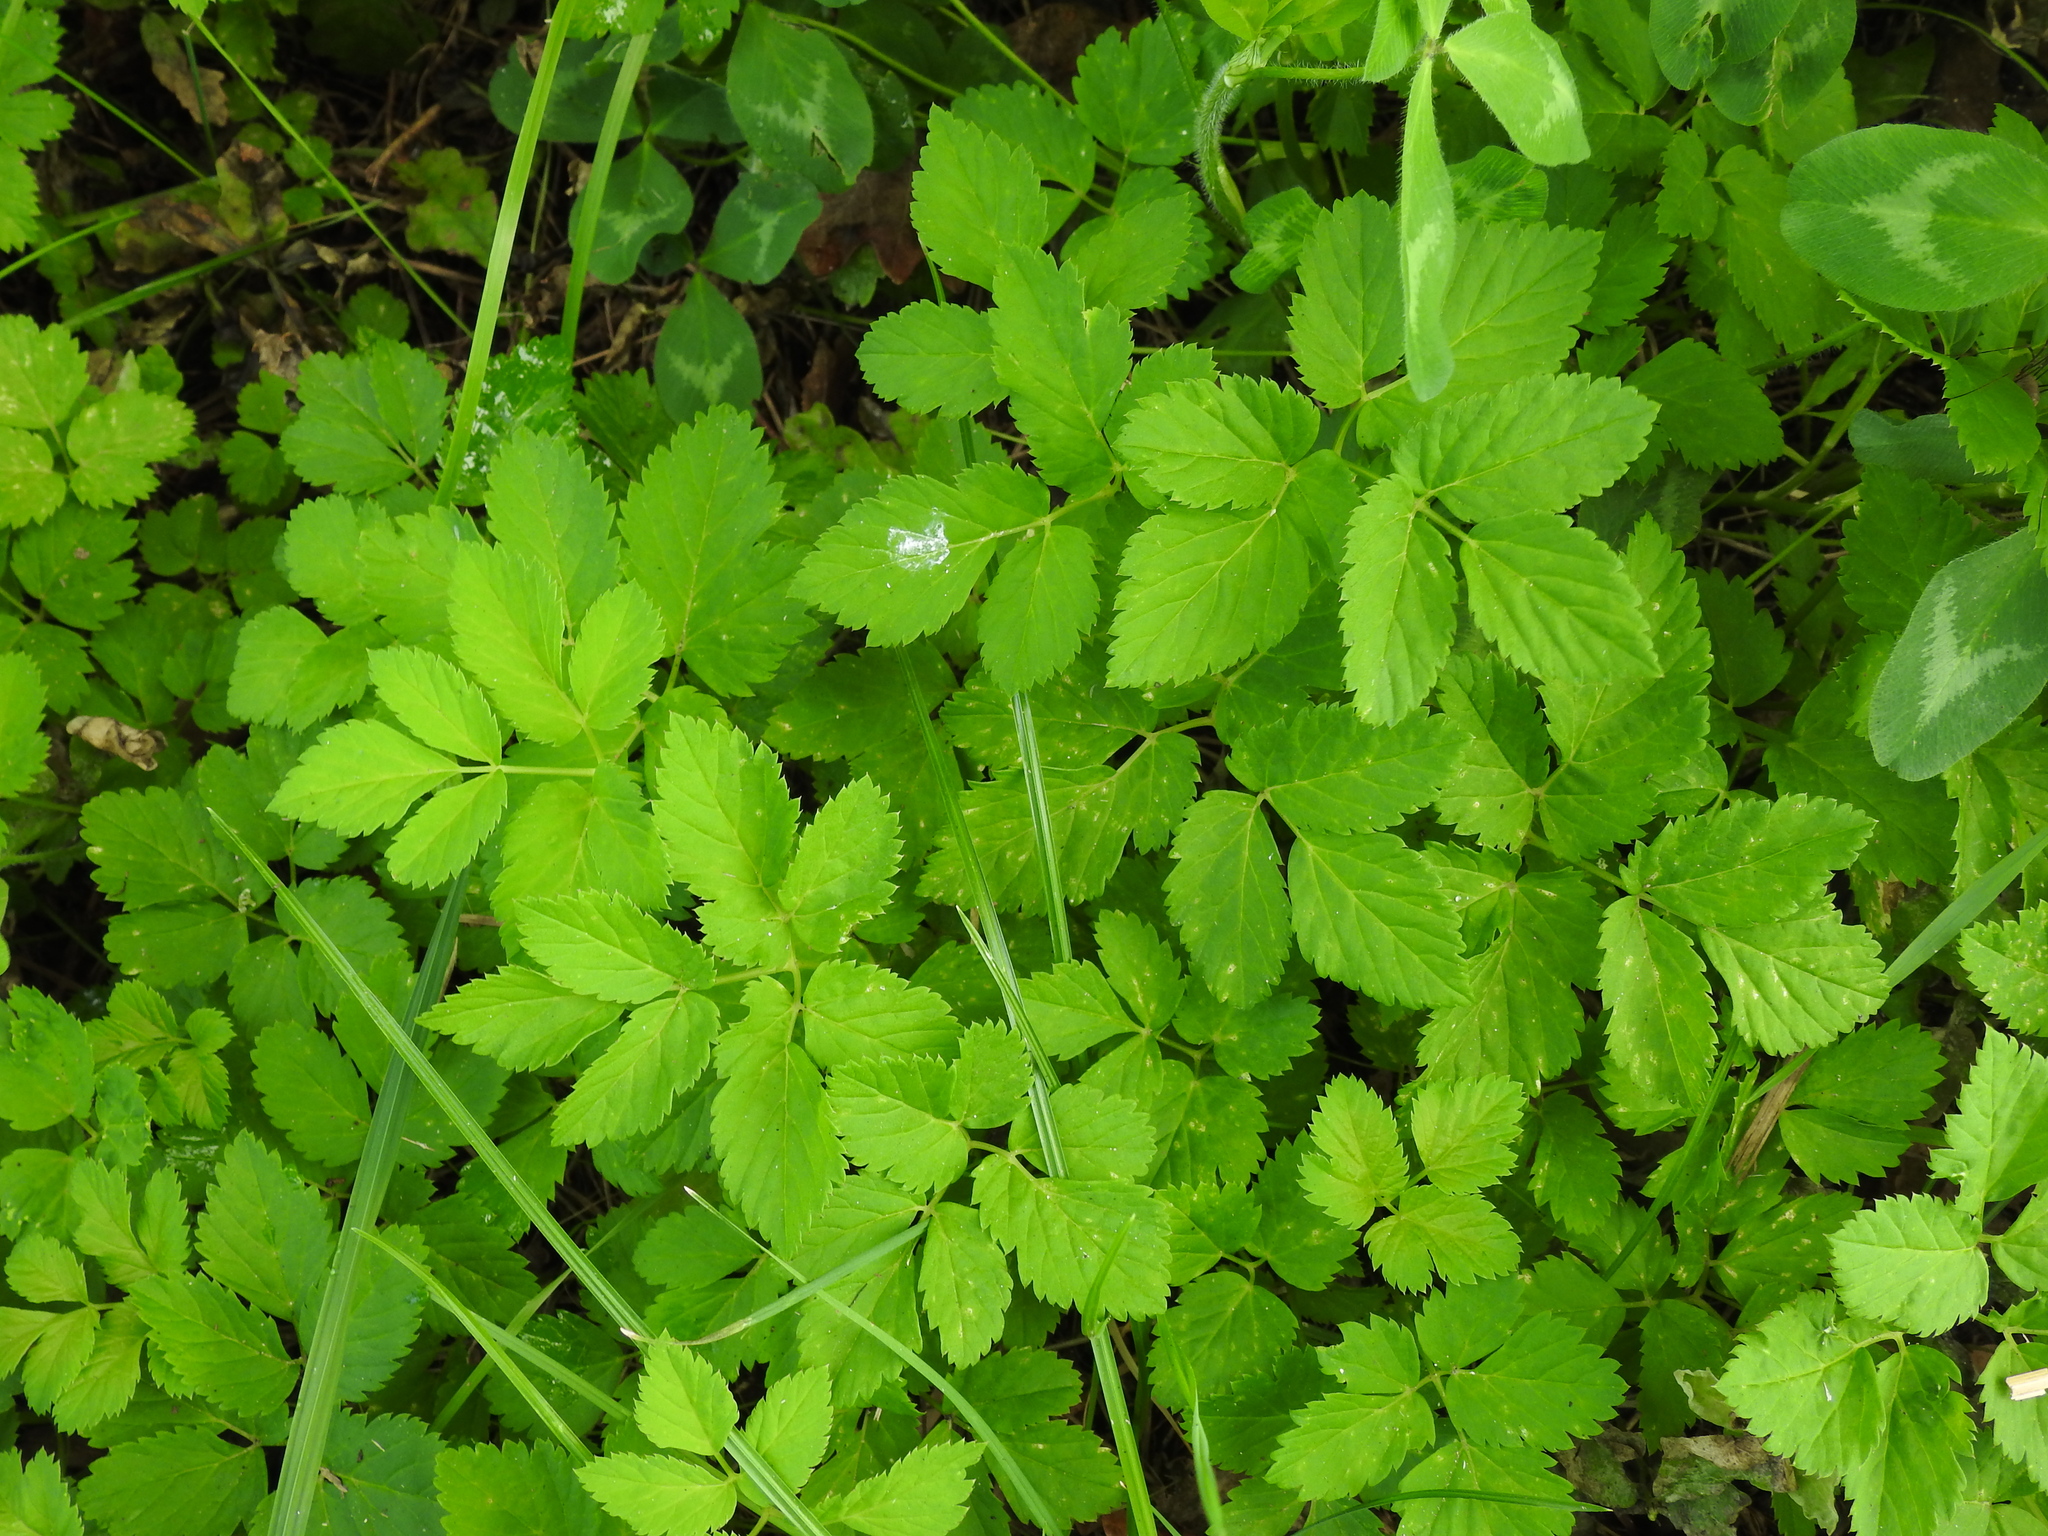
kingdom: Plantae
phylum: Tracheophyta
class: Magnoliopsida
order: Apiales
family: Apiaceae
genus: Aegopodium
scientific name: Aegopodium podagraria
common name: Ground-elder
